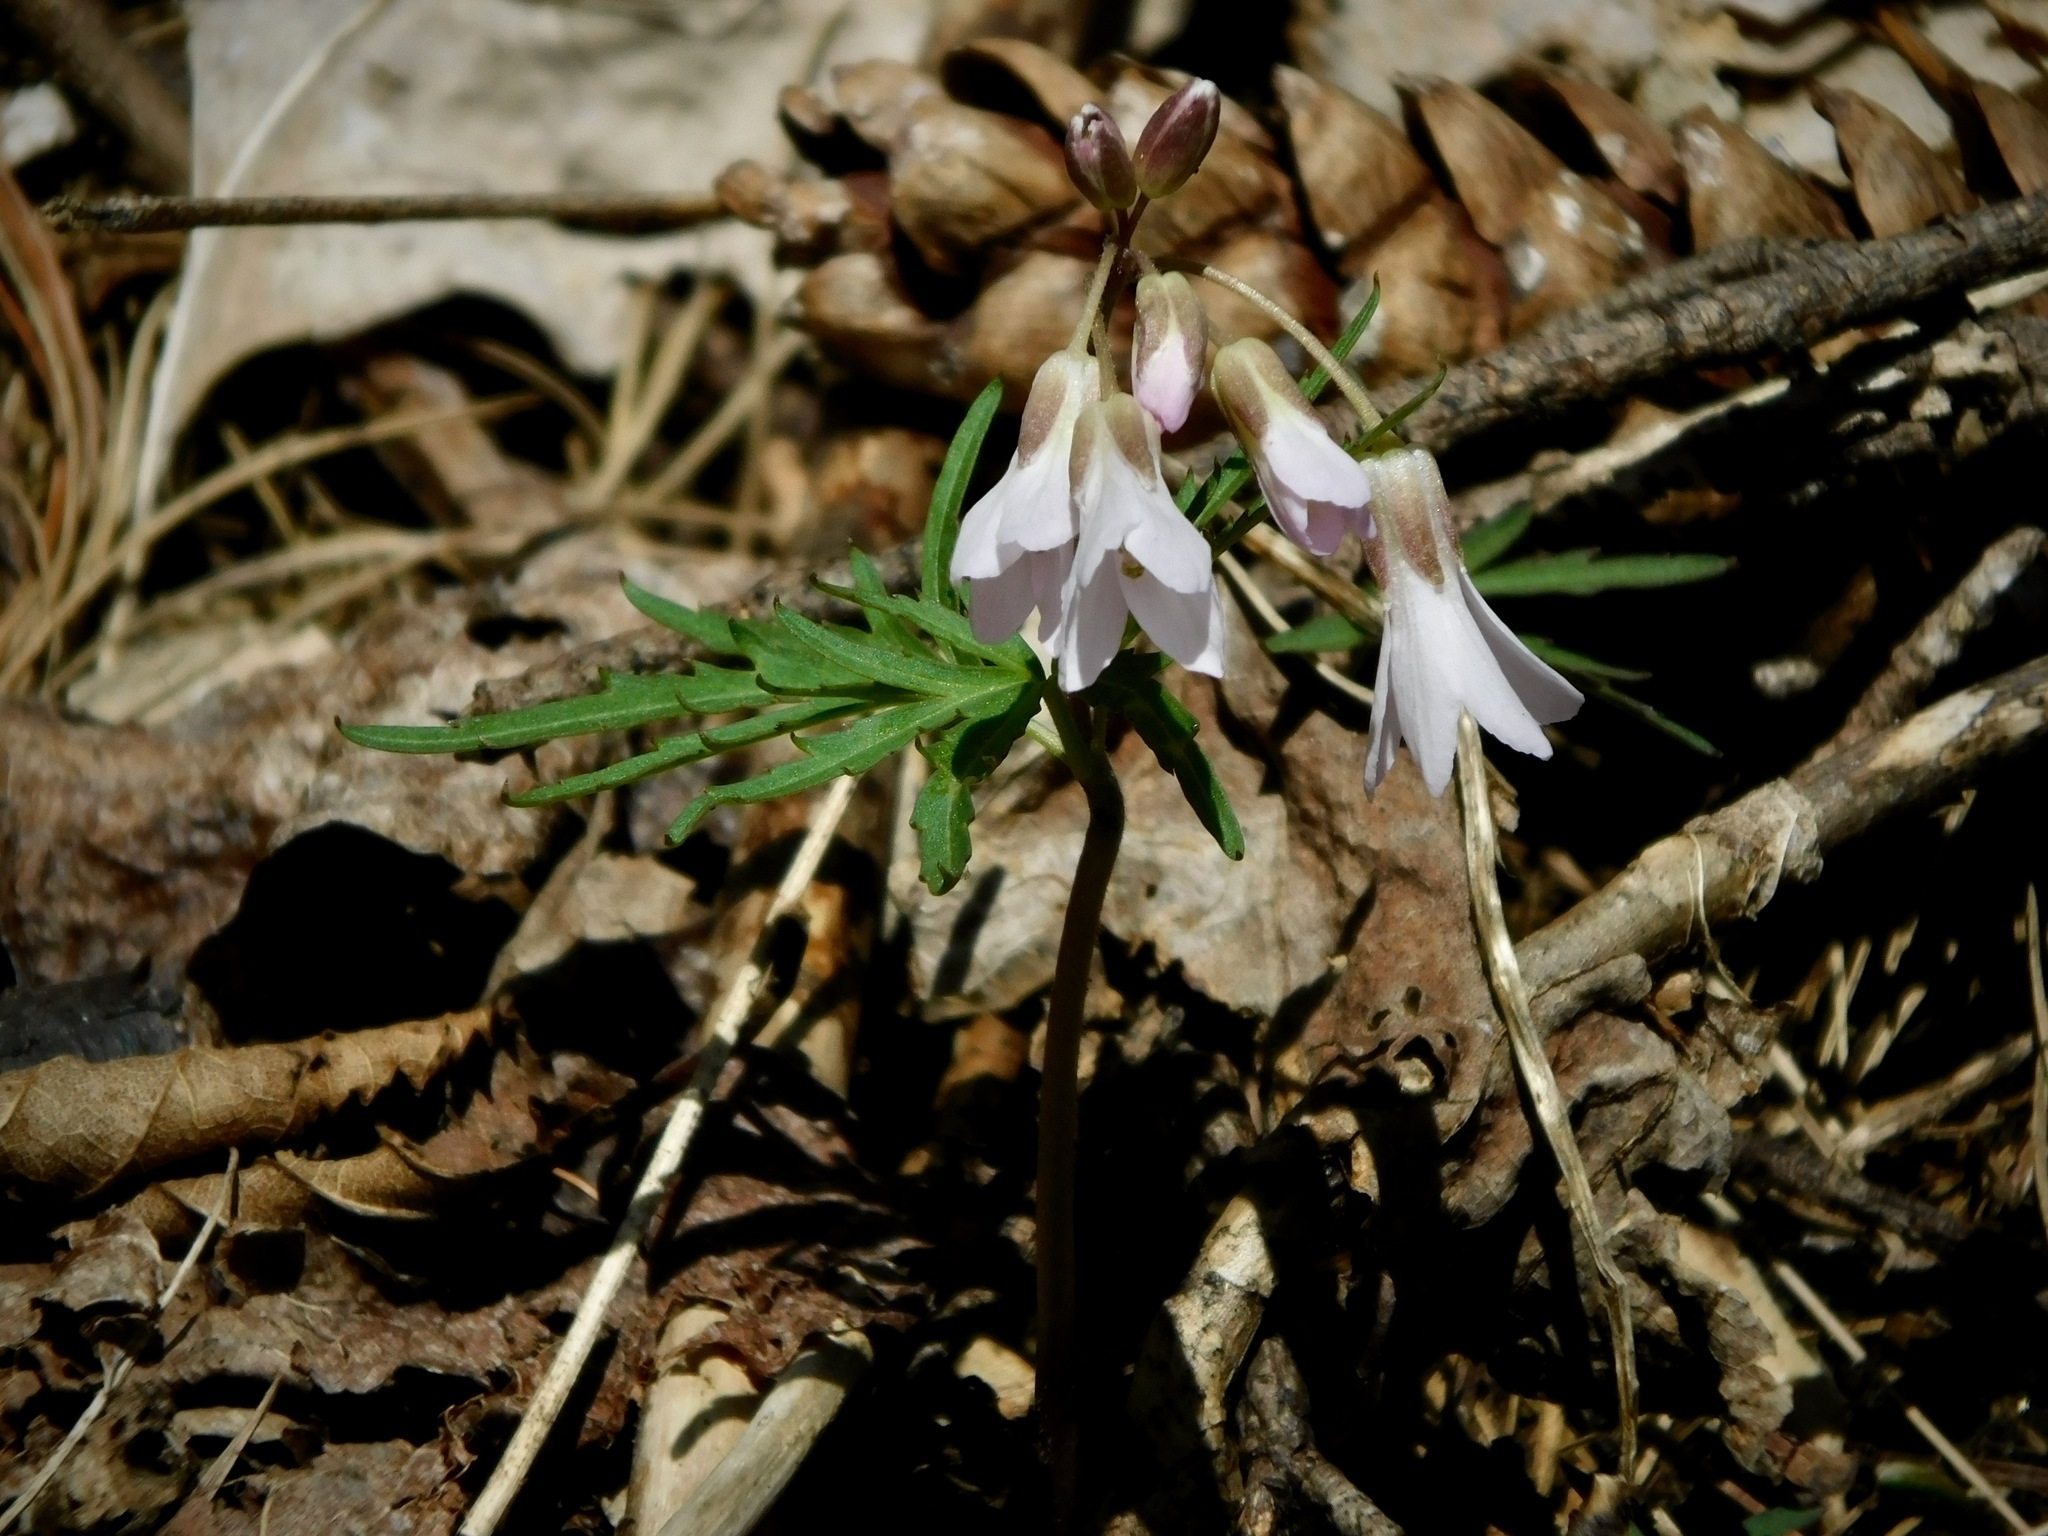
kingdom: Plantae
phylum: Tracheophyta
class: Magnoliopsida
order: Brassicales
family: Brassicaceae
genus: Cardamine
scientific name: Cardamine concatenata
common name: Cut-leaf toothcup
